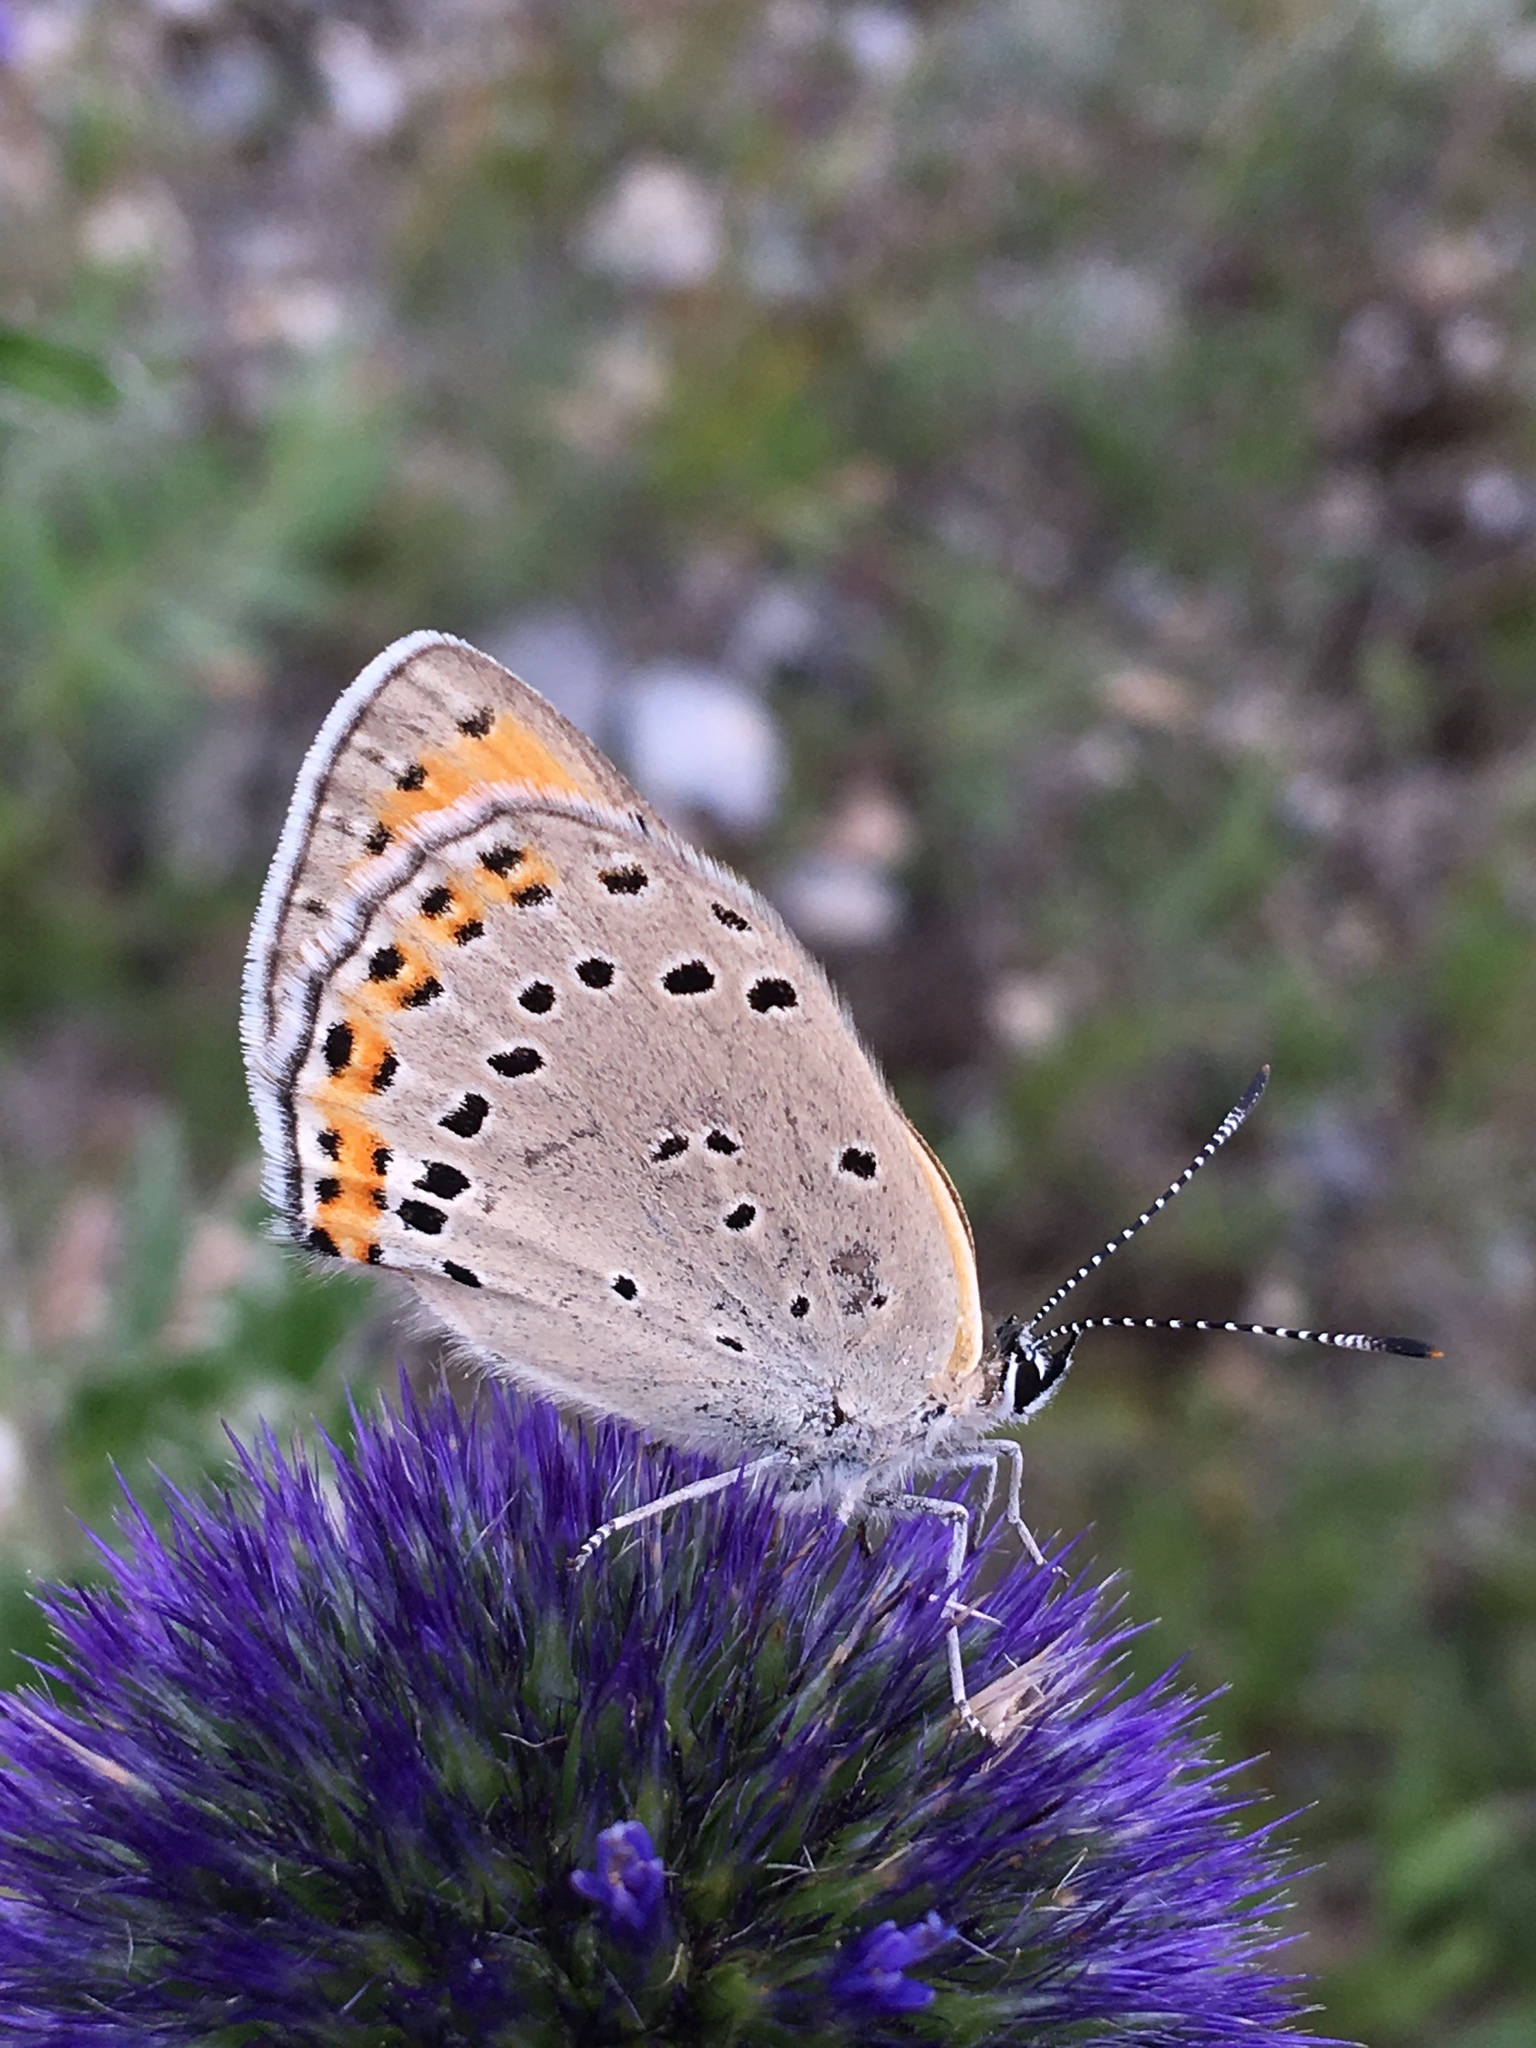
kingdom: Animalia
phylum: Arthropoda
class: Insecta
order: Lepidoptera
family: Lycaenidae
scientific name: Lycaenidae
